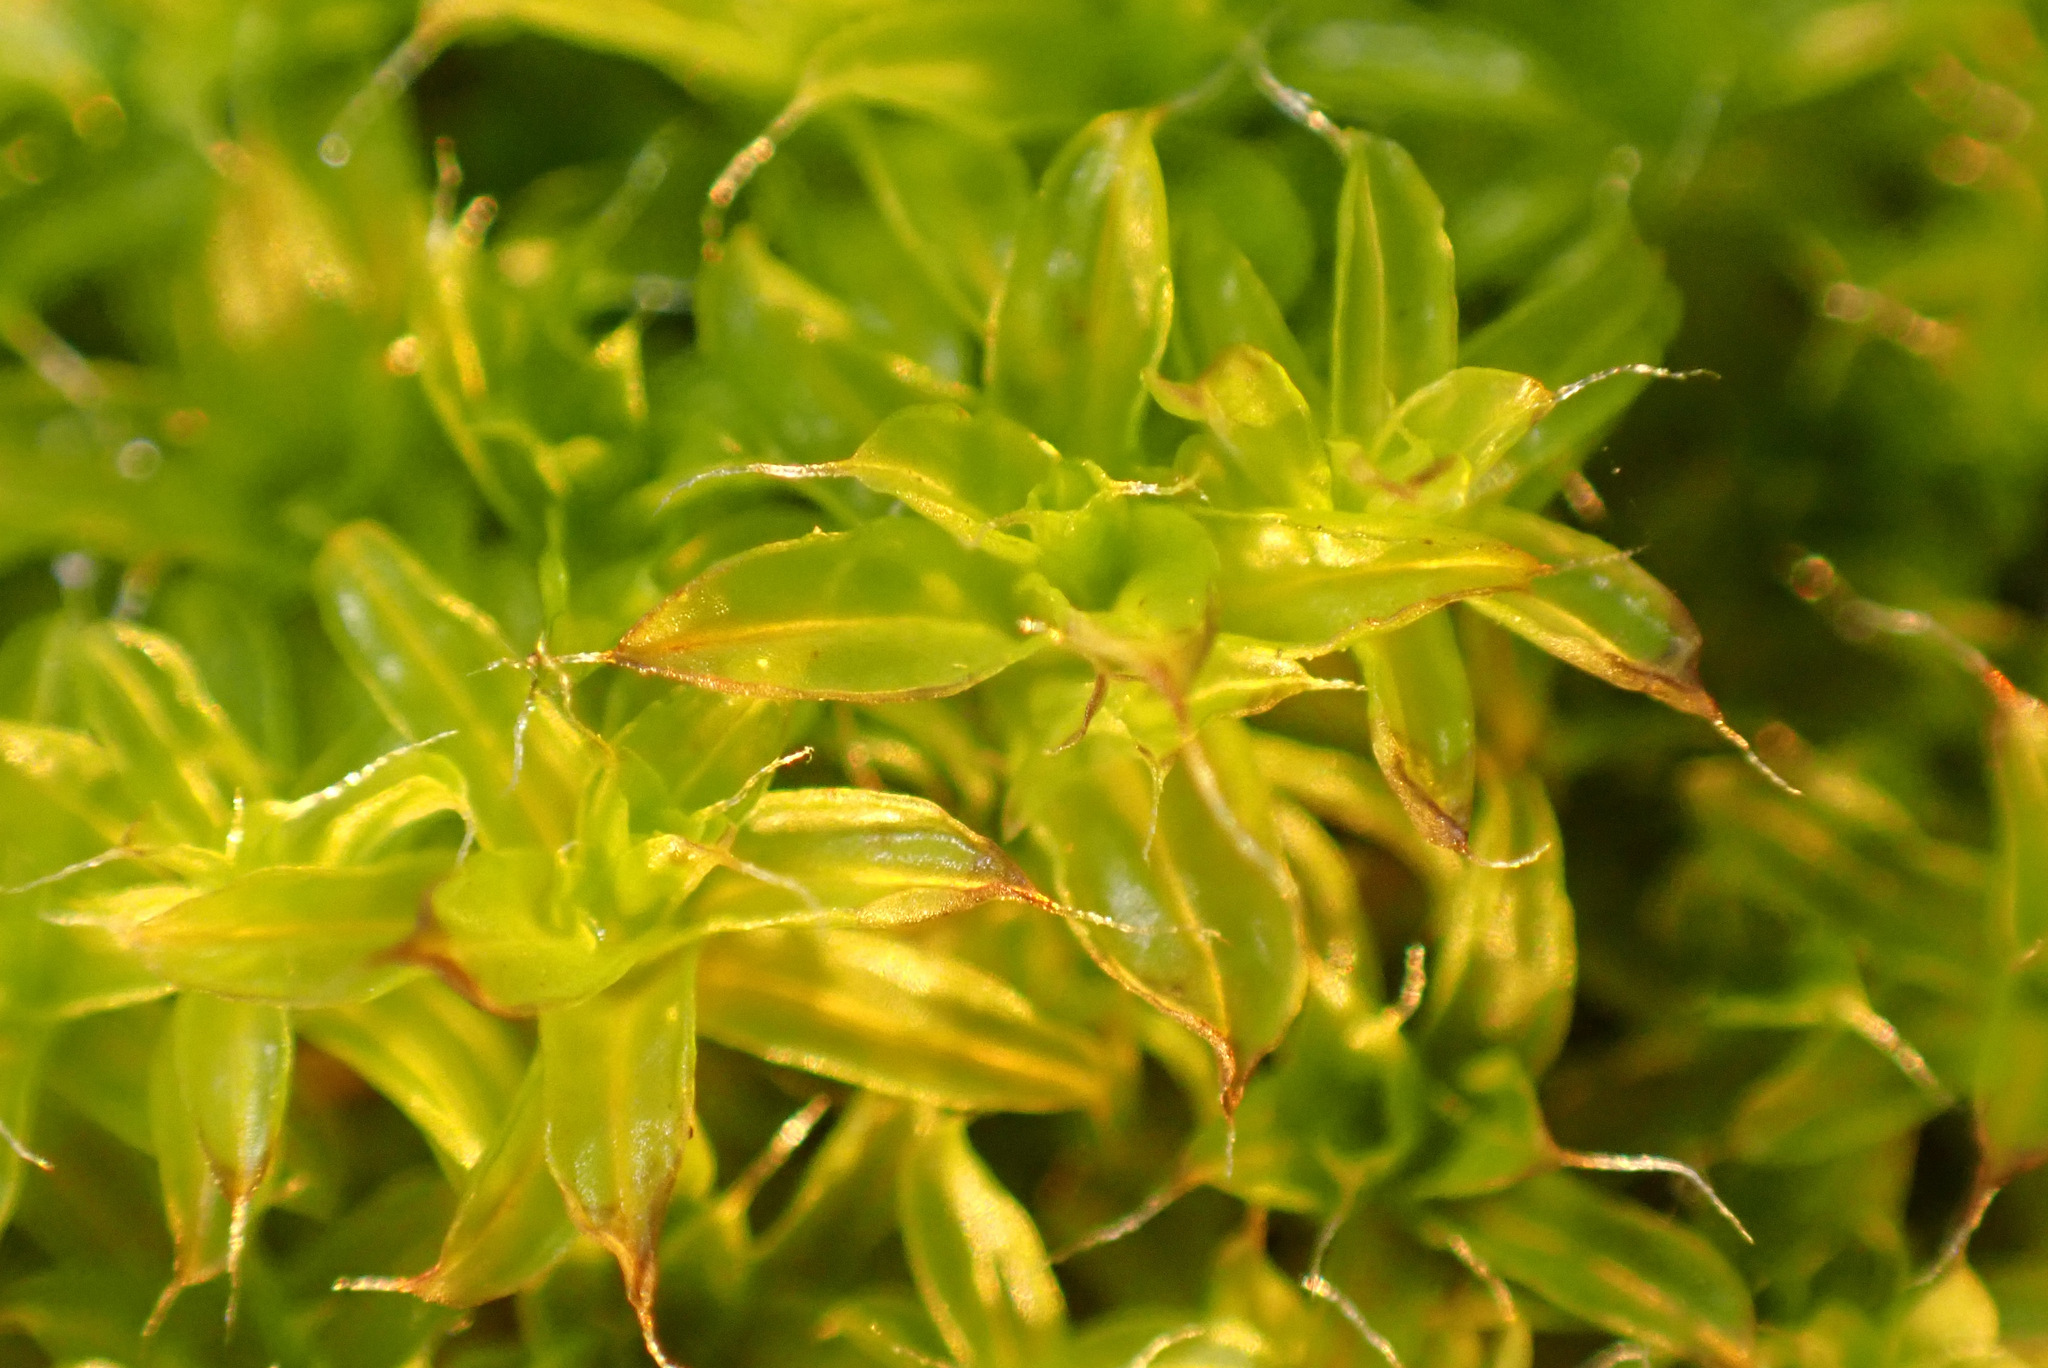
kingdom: Plantae
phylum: Bryophyta
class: Bryopsida
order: Pottiales
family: Pottiaceae
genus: Syntrichia
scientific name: Syntrichia ruralis
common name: Sidewalk screw moss
